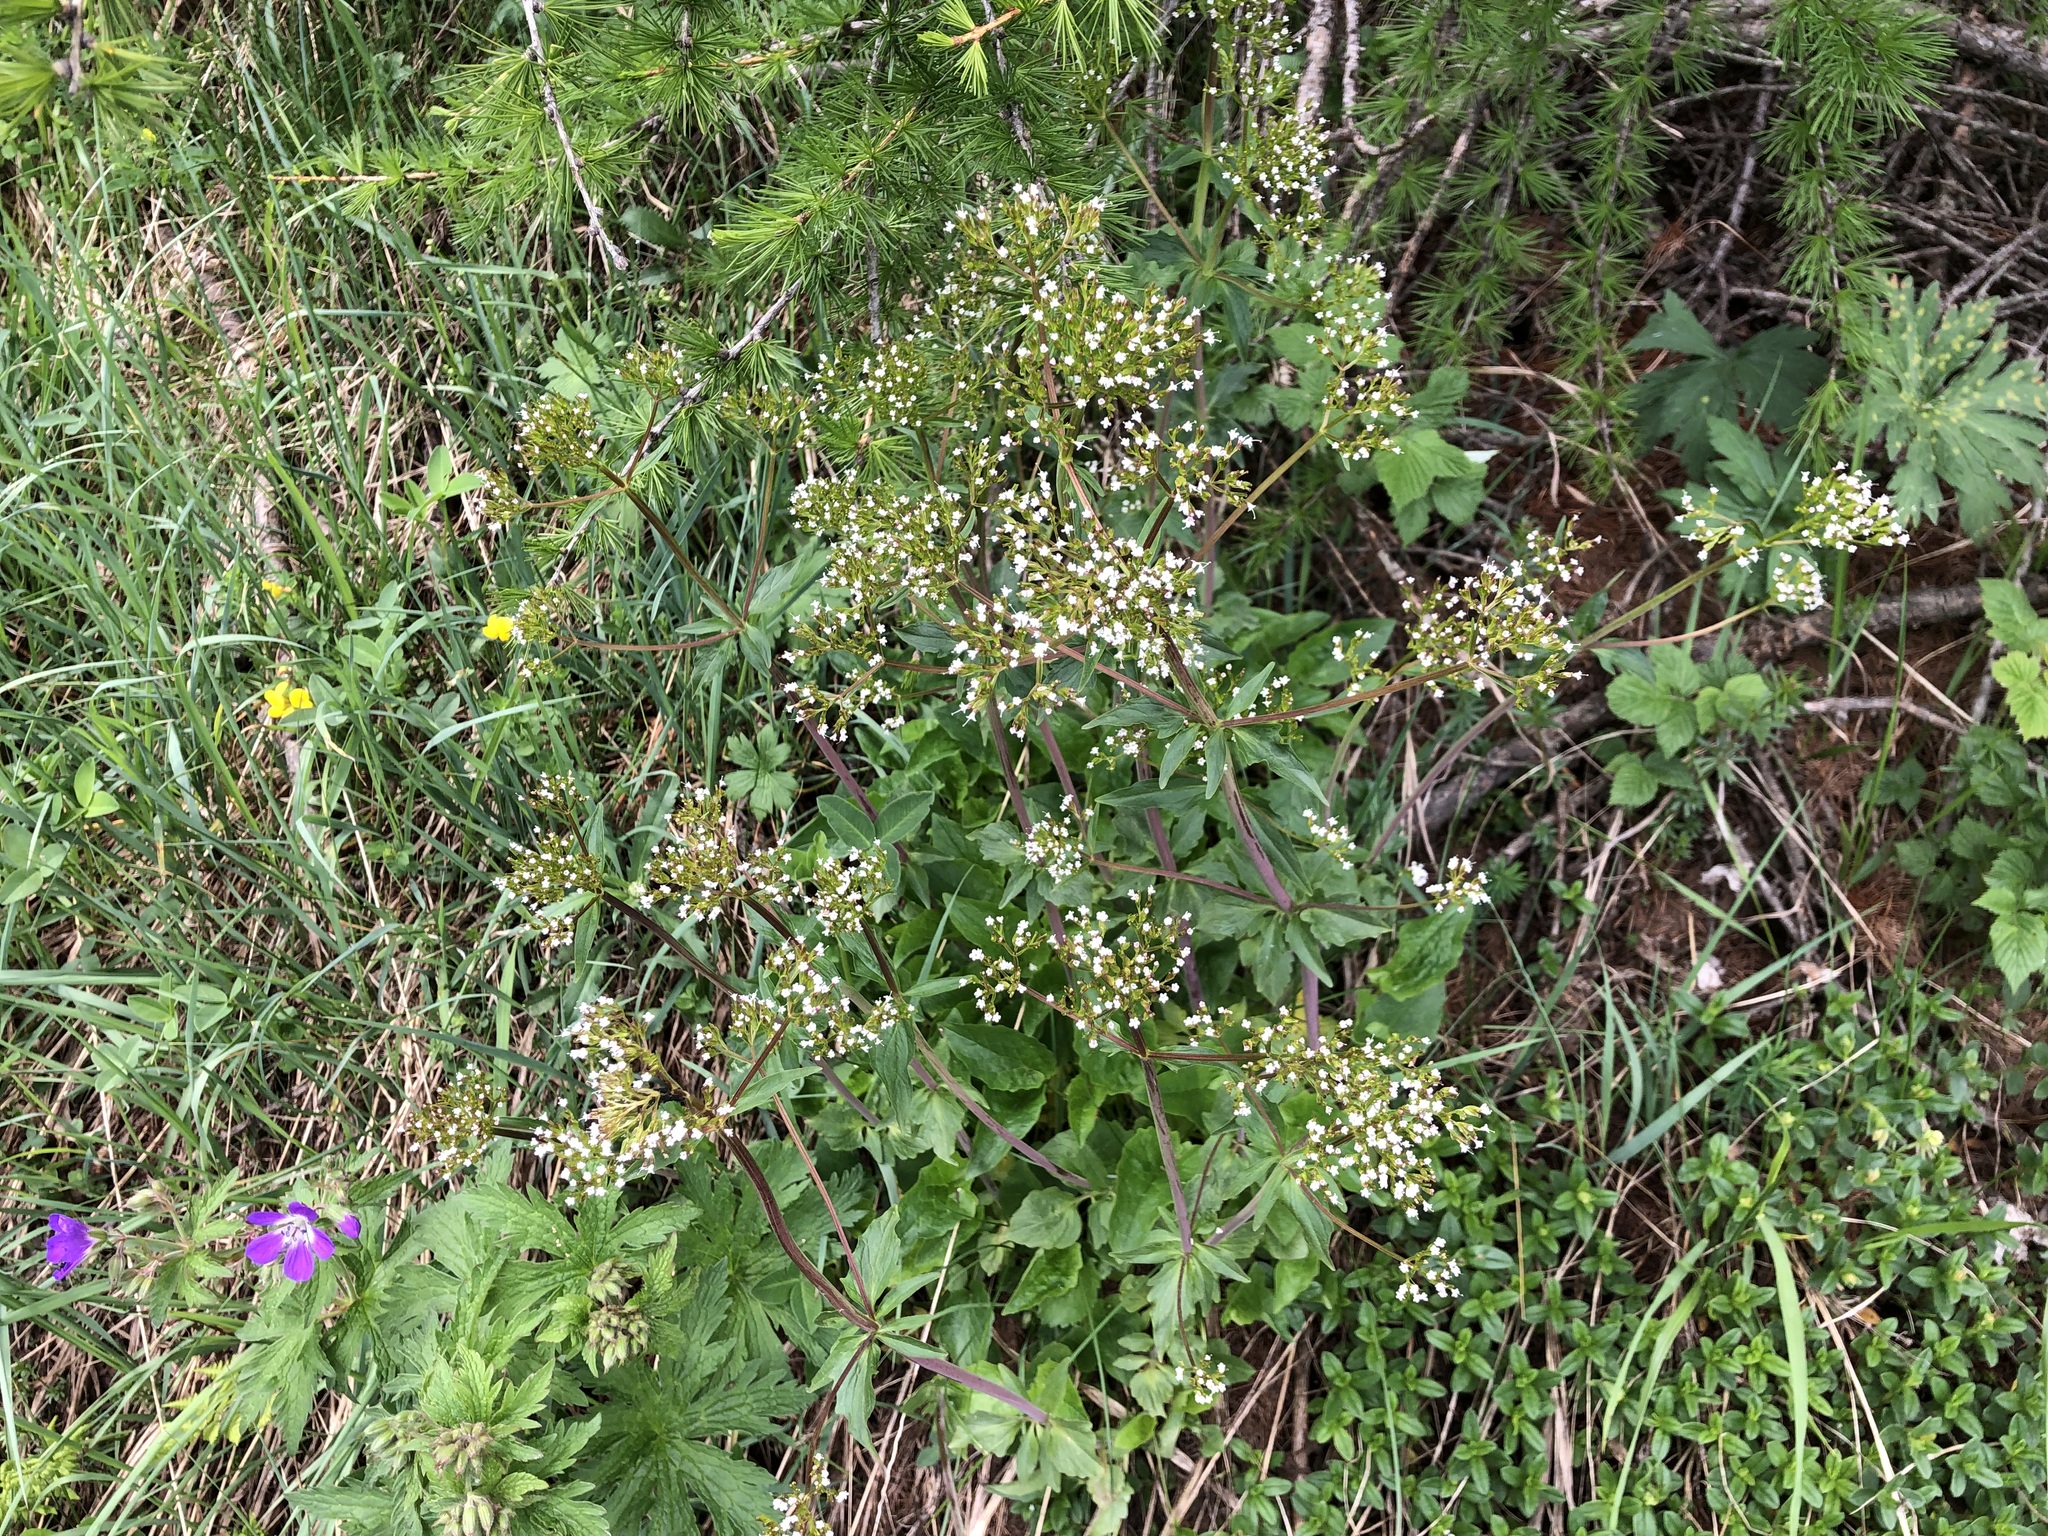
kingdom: Plantae
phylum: Tracheophyta
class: Magnoliopsida
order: Dipsacales
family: Caprifoliaceae
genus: Valeriana
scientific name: Valeriana tripteris
